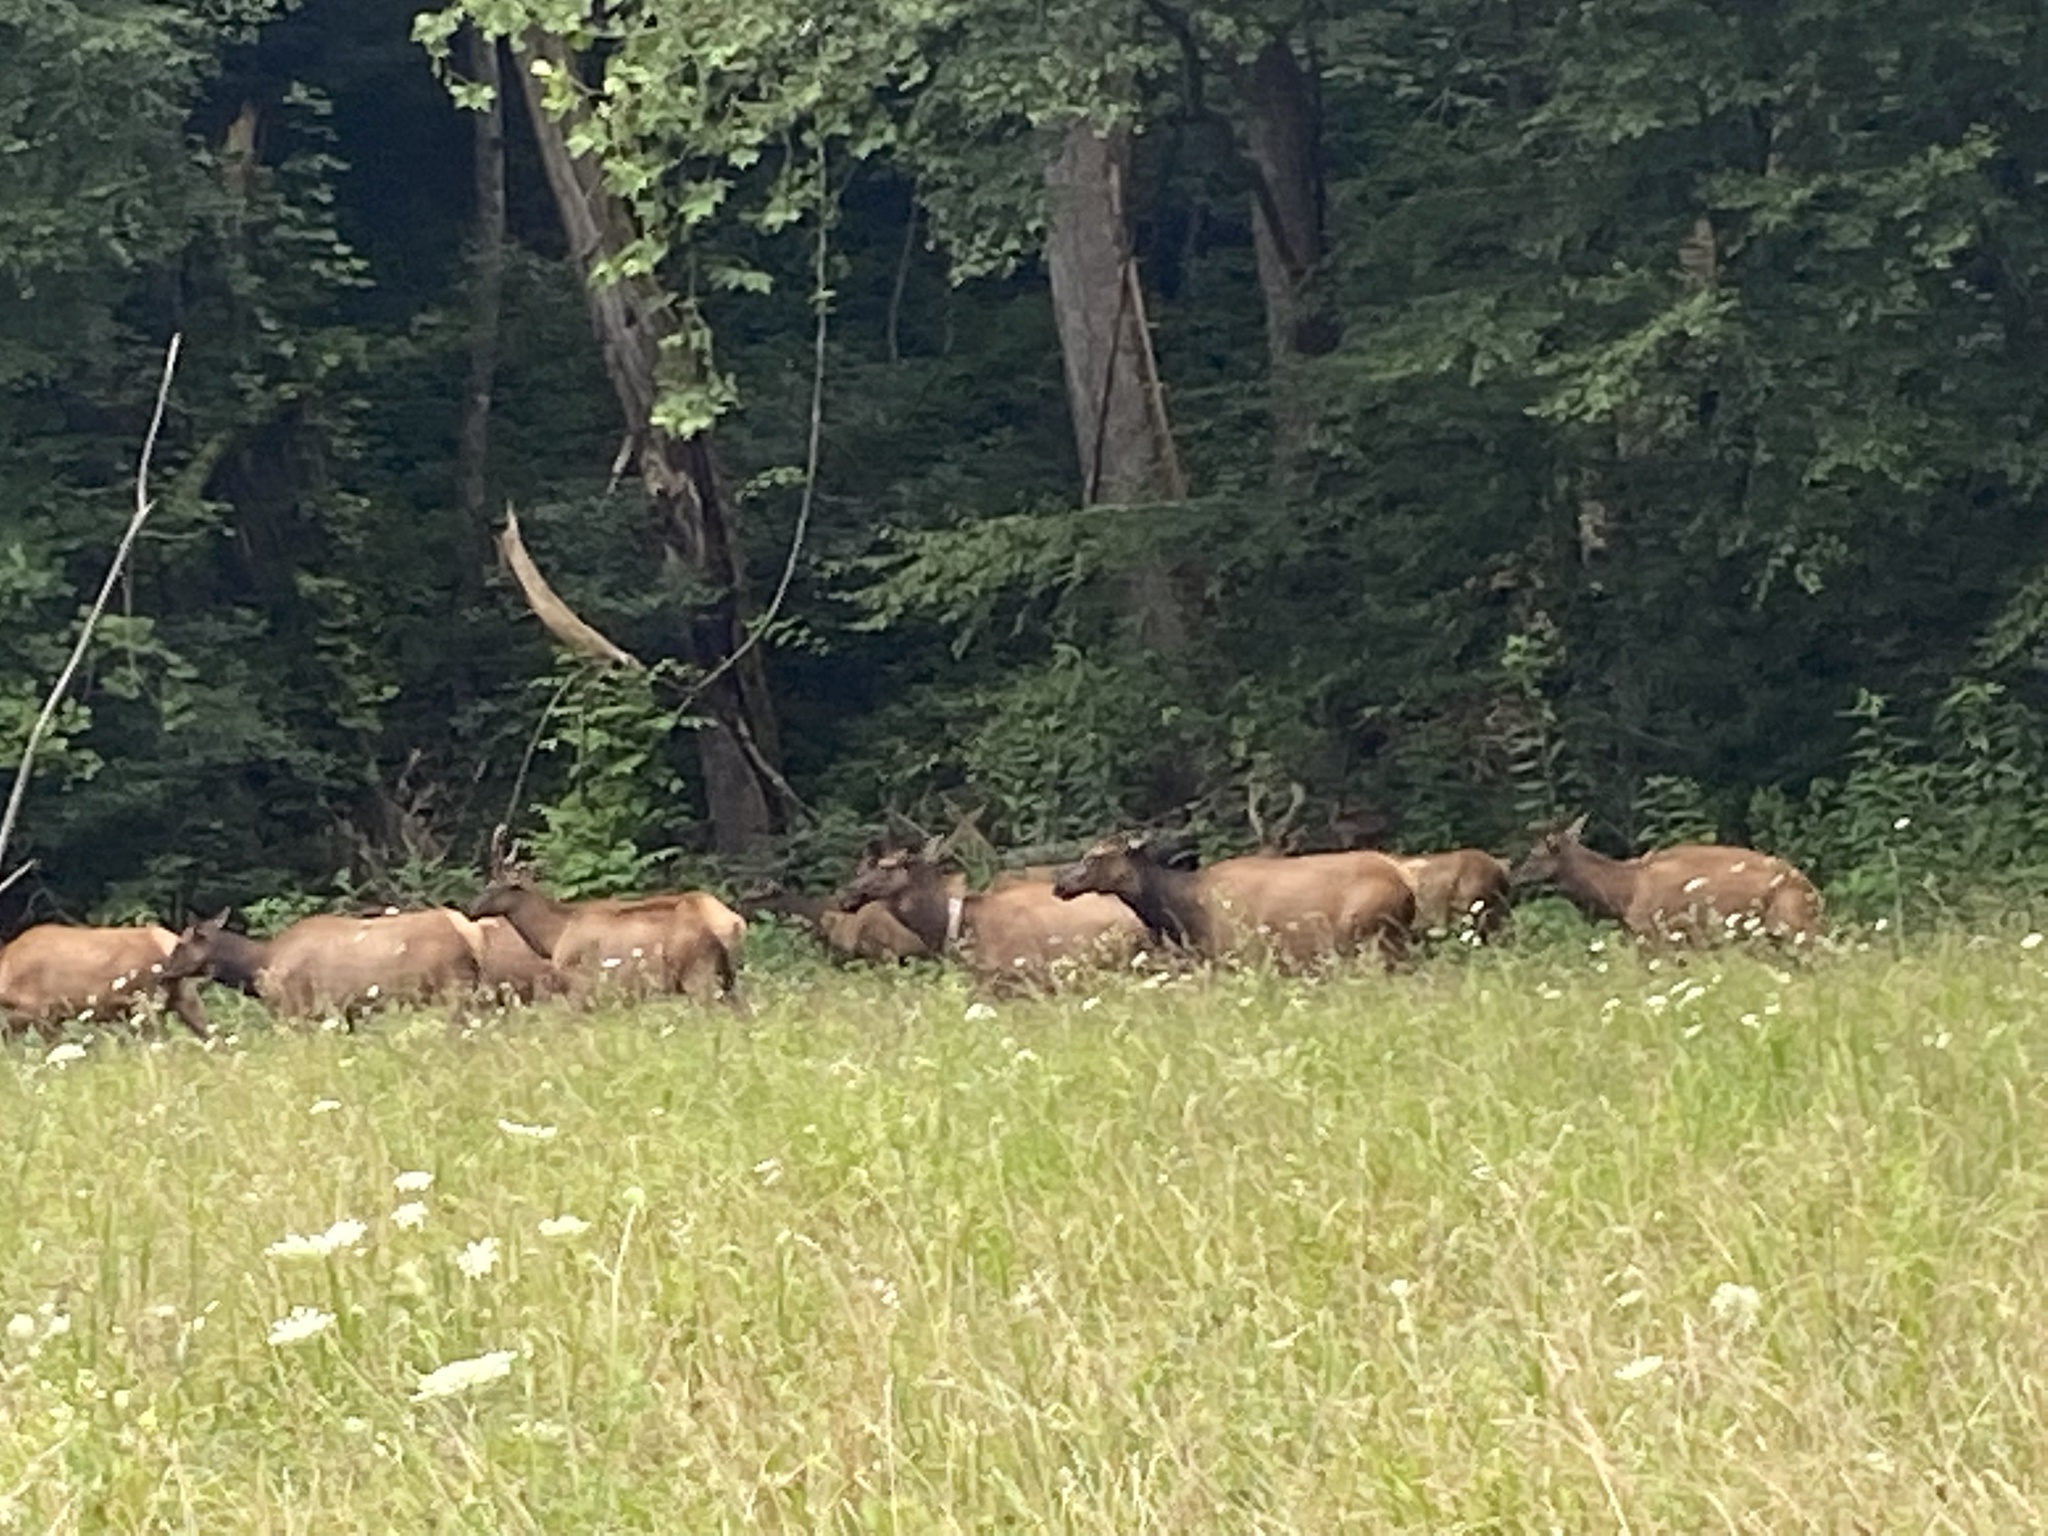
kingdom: Animalia
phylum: Chordata
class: Mammalia
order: Artiodactyla
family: Cervidae
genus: Cervus
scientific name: Cervus elaphus
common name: Red deer
